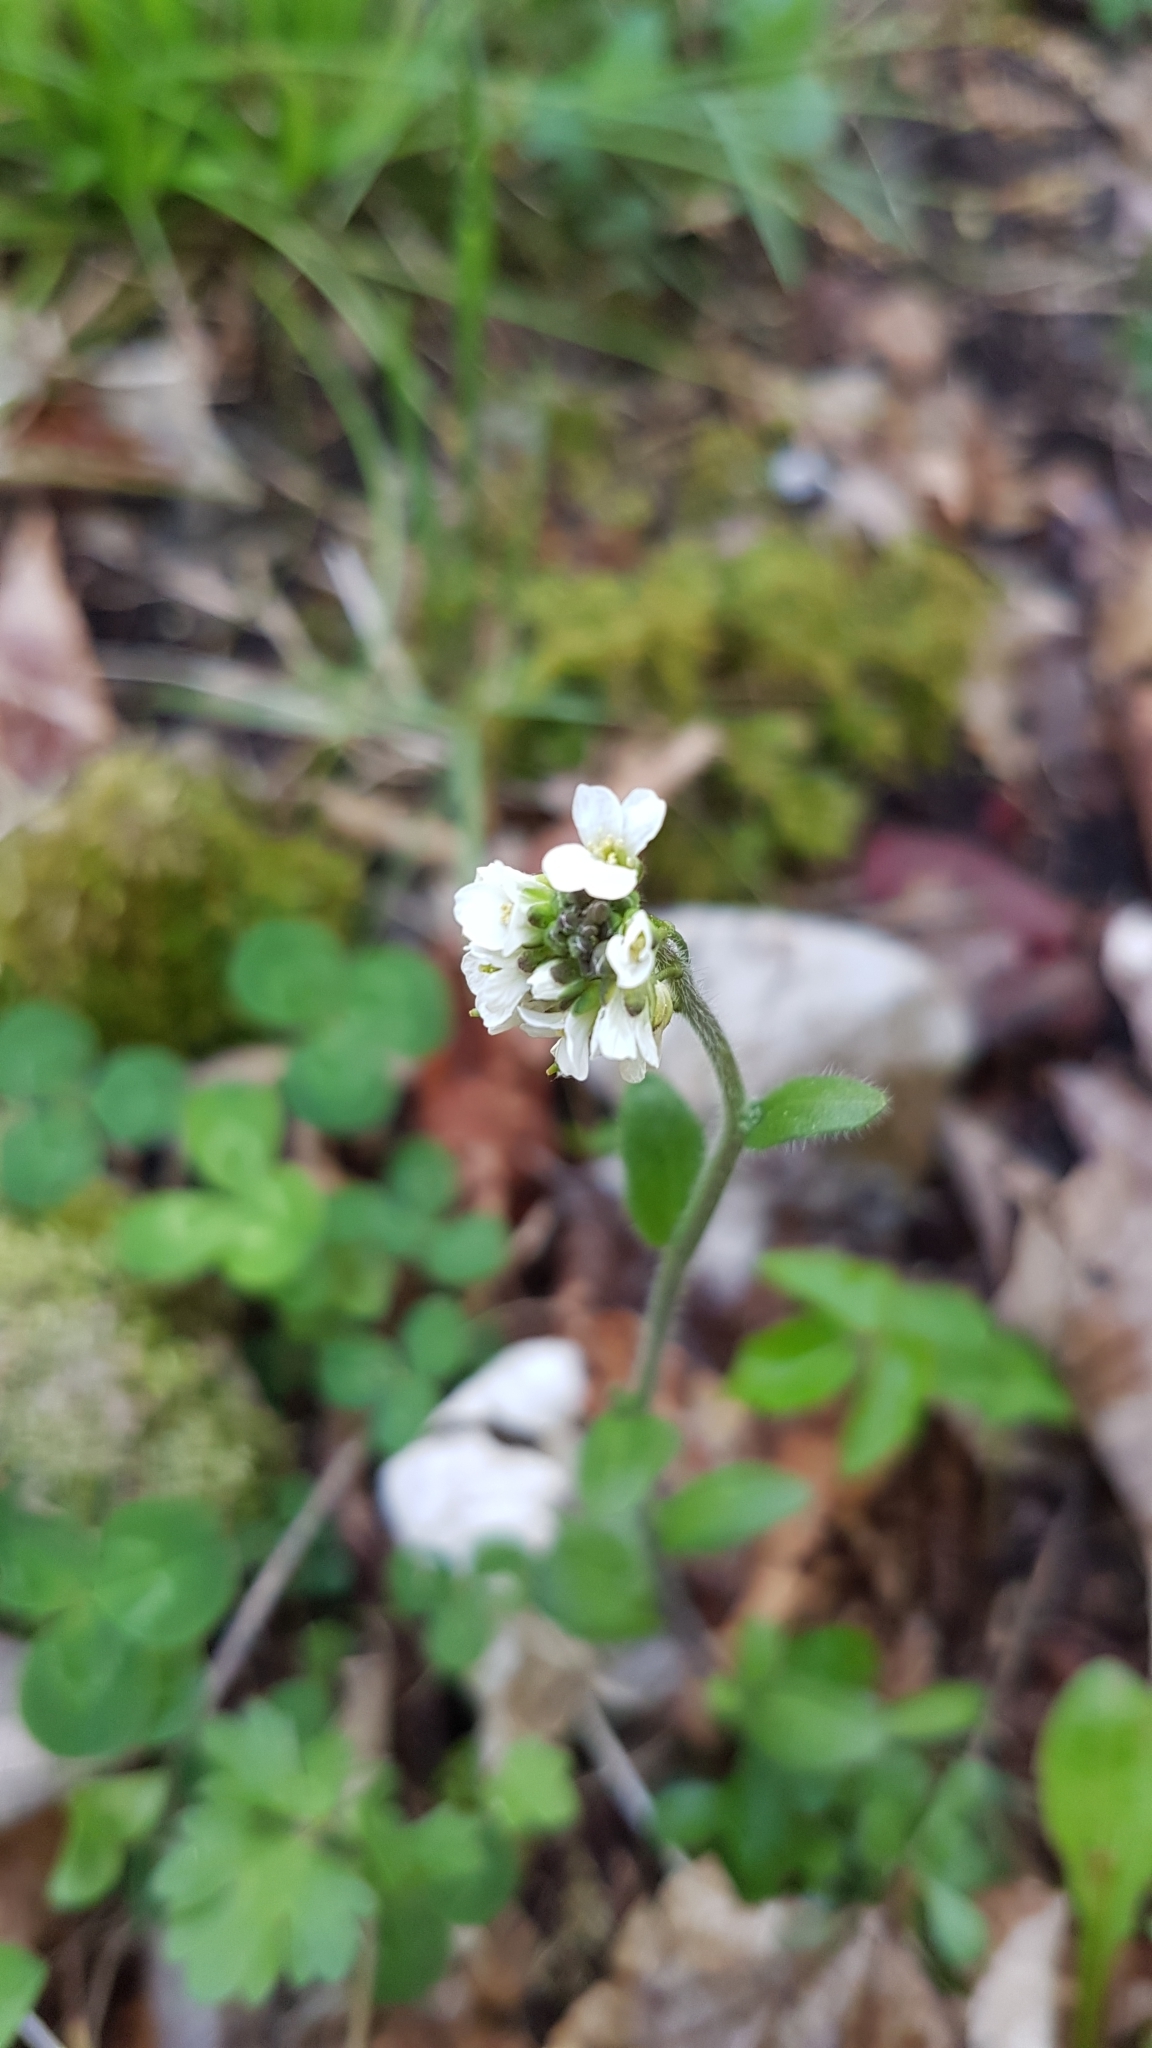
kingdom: Plantae
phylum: Tracheophyta
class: Magnoliopsida
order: Brassicales
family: Brassicaceae
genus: Arabis
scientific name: Arabis hirsuta
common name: Hairy rock-cress
